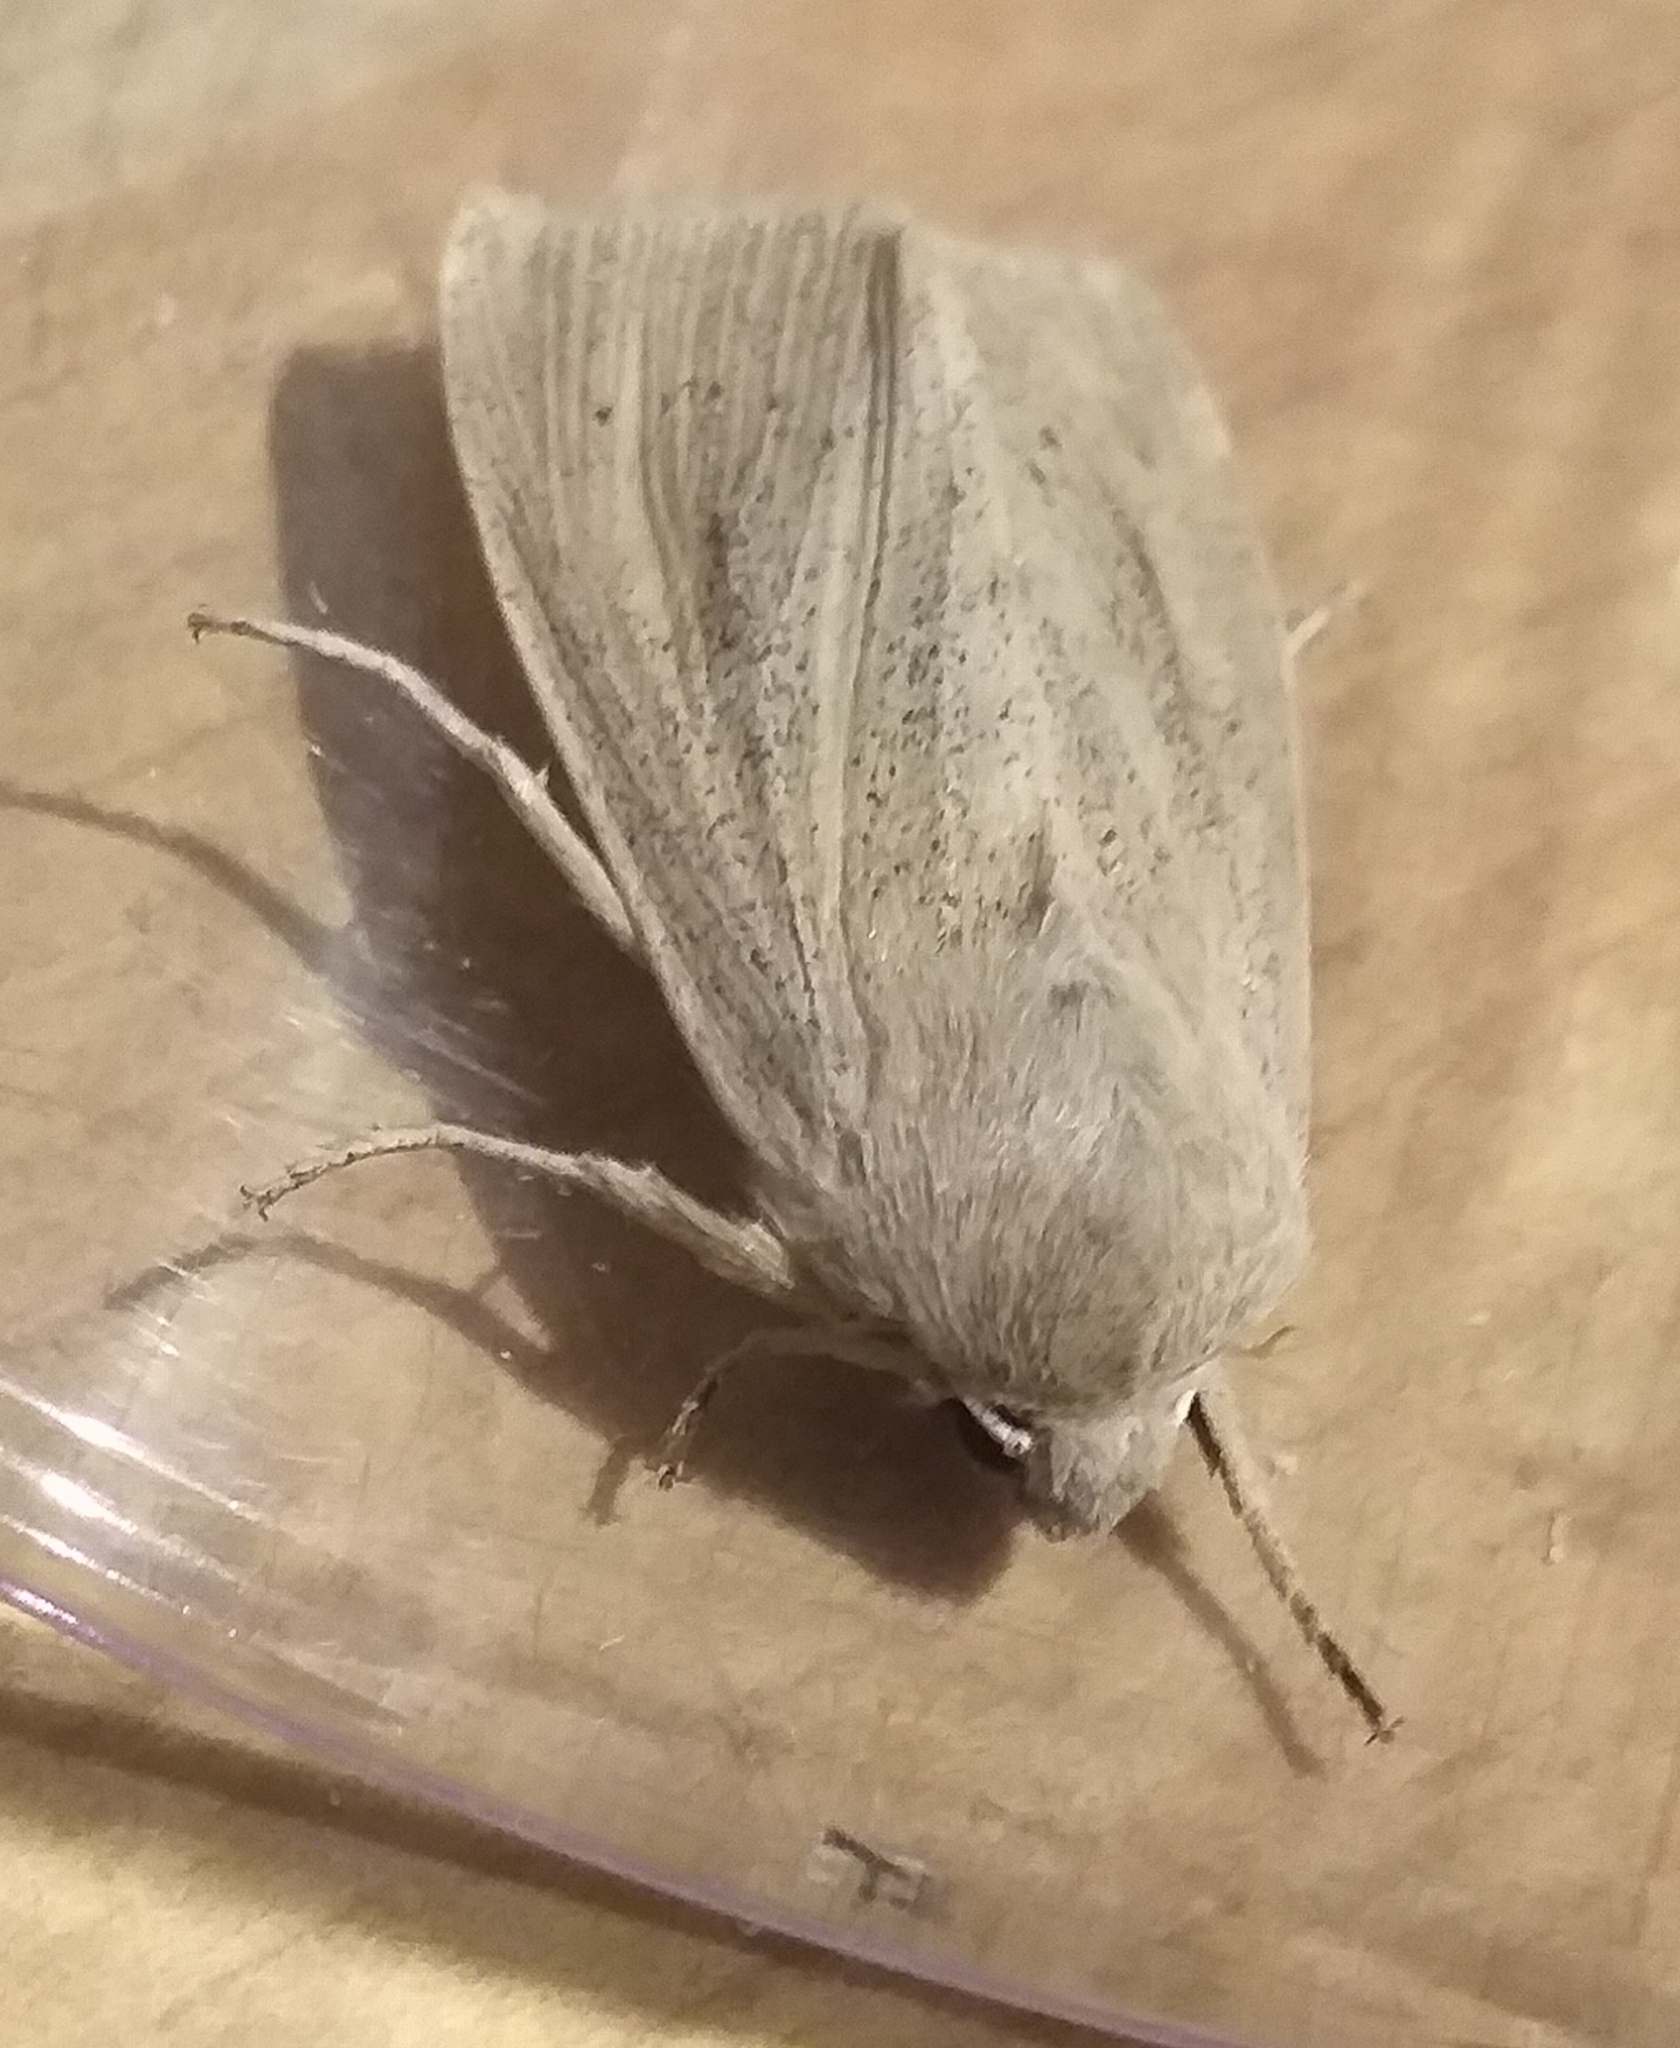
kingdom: Animalia
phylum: Arthropoda
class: Insecta
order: Lepidoptera
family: Noctuidae
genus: Rhizedra
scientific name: Rhizedra lutosa
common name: Large wainscot
